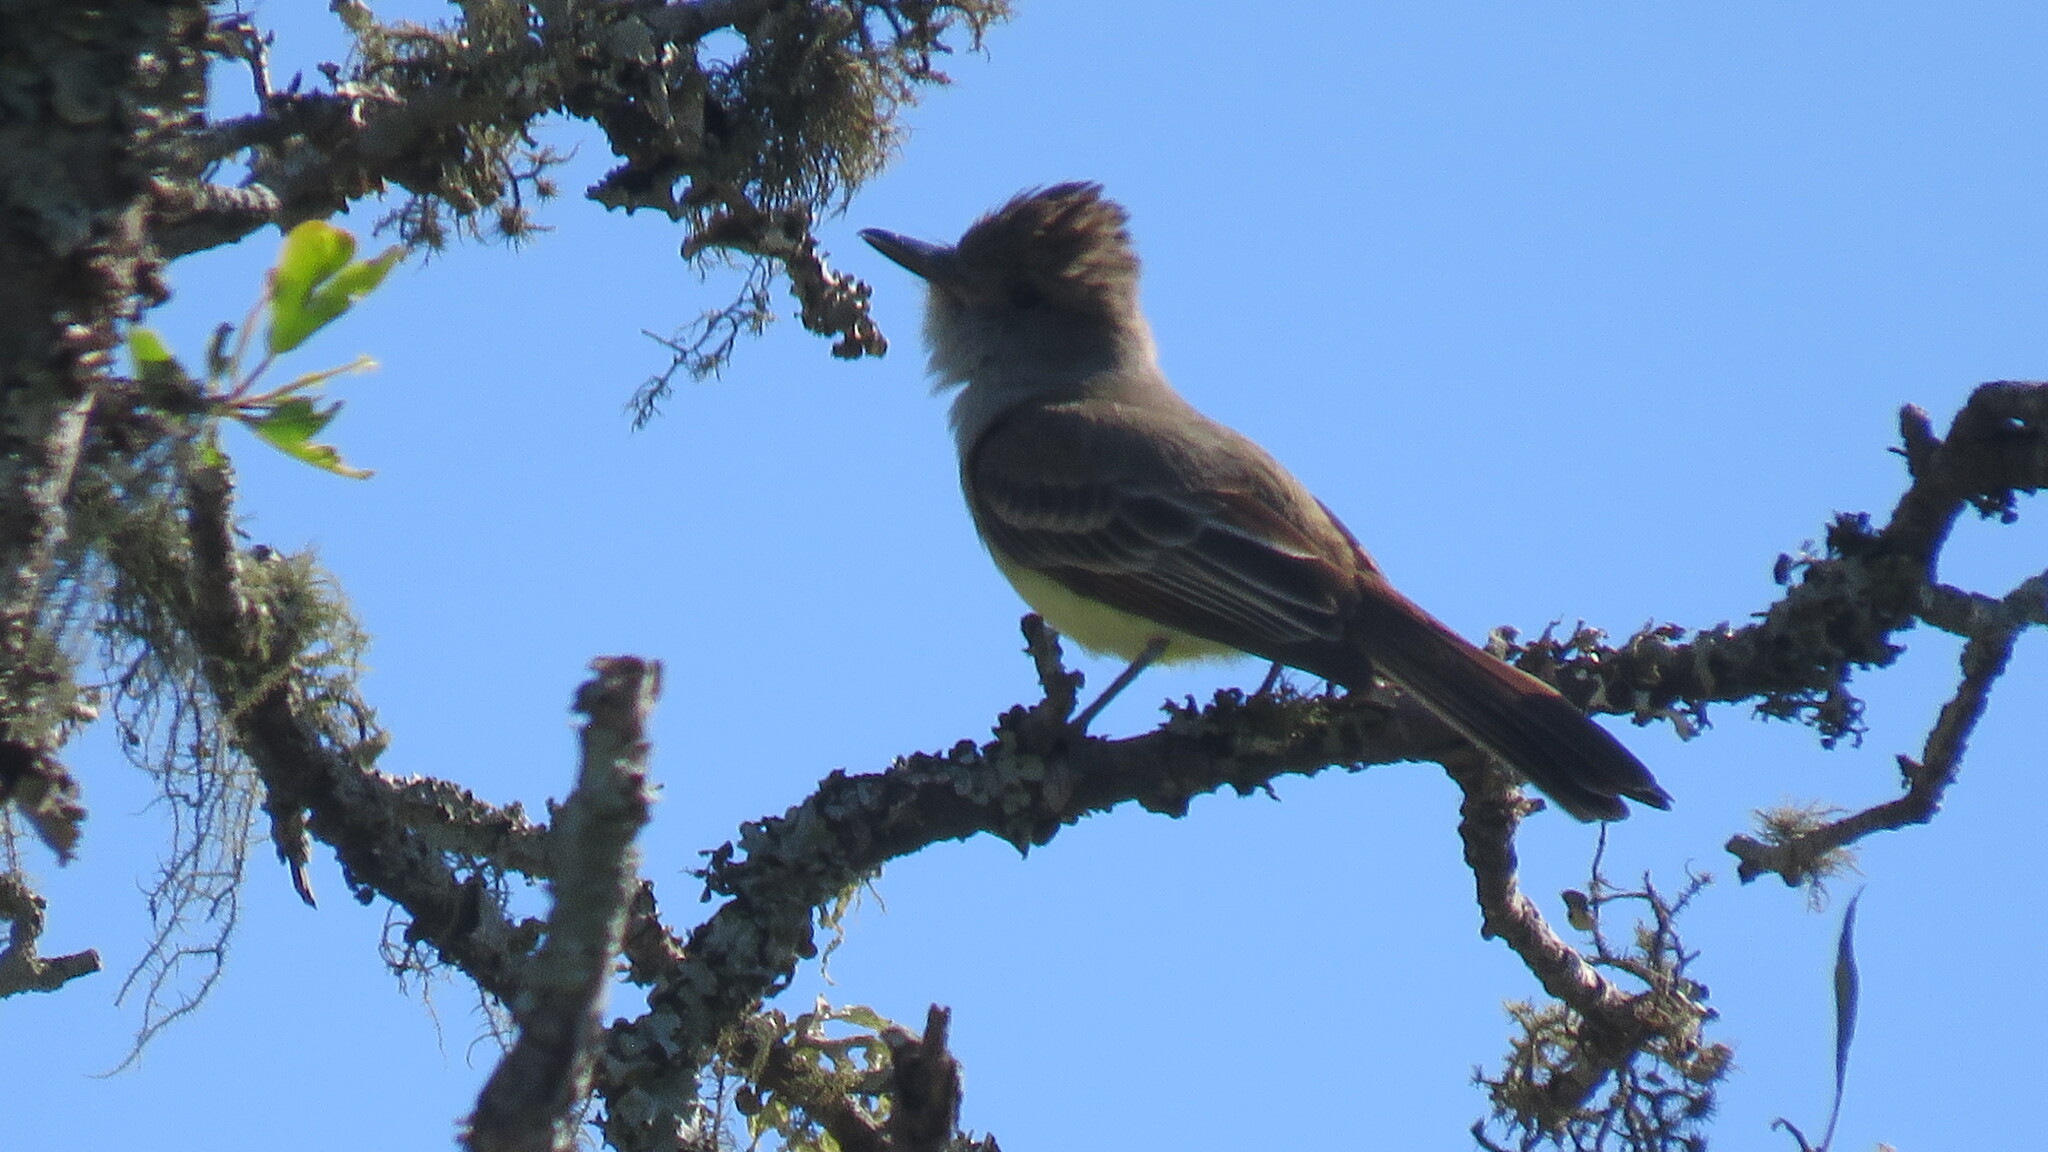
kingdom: Animalia
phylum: Chordata
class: Aves
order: Passeriformes
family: Tyrannidae
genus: Myiarchus
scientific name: Myiarchus tyrannulus
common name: Brown-crested flycatcher
